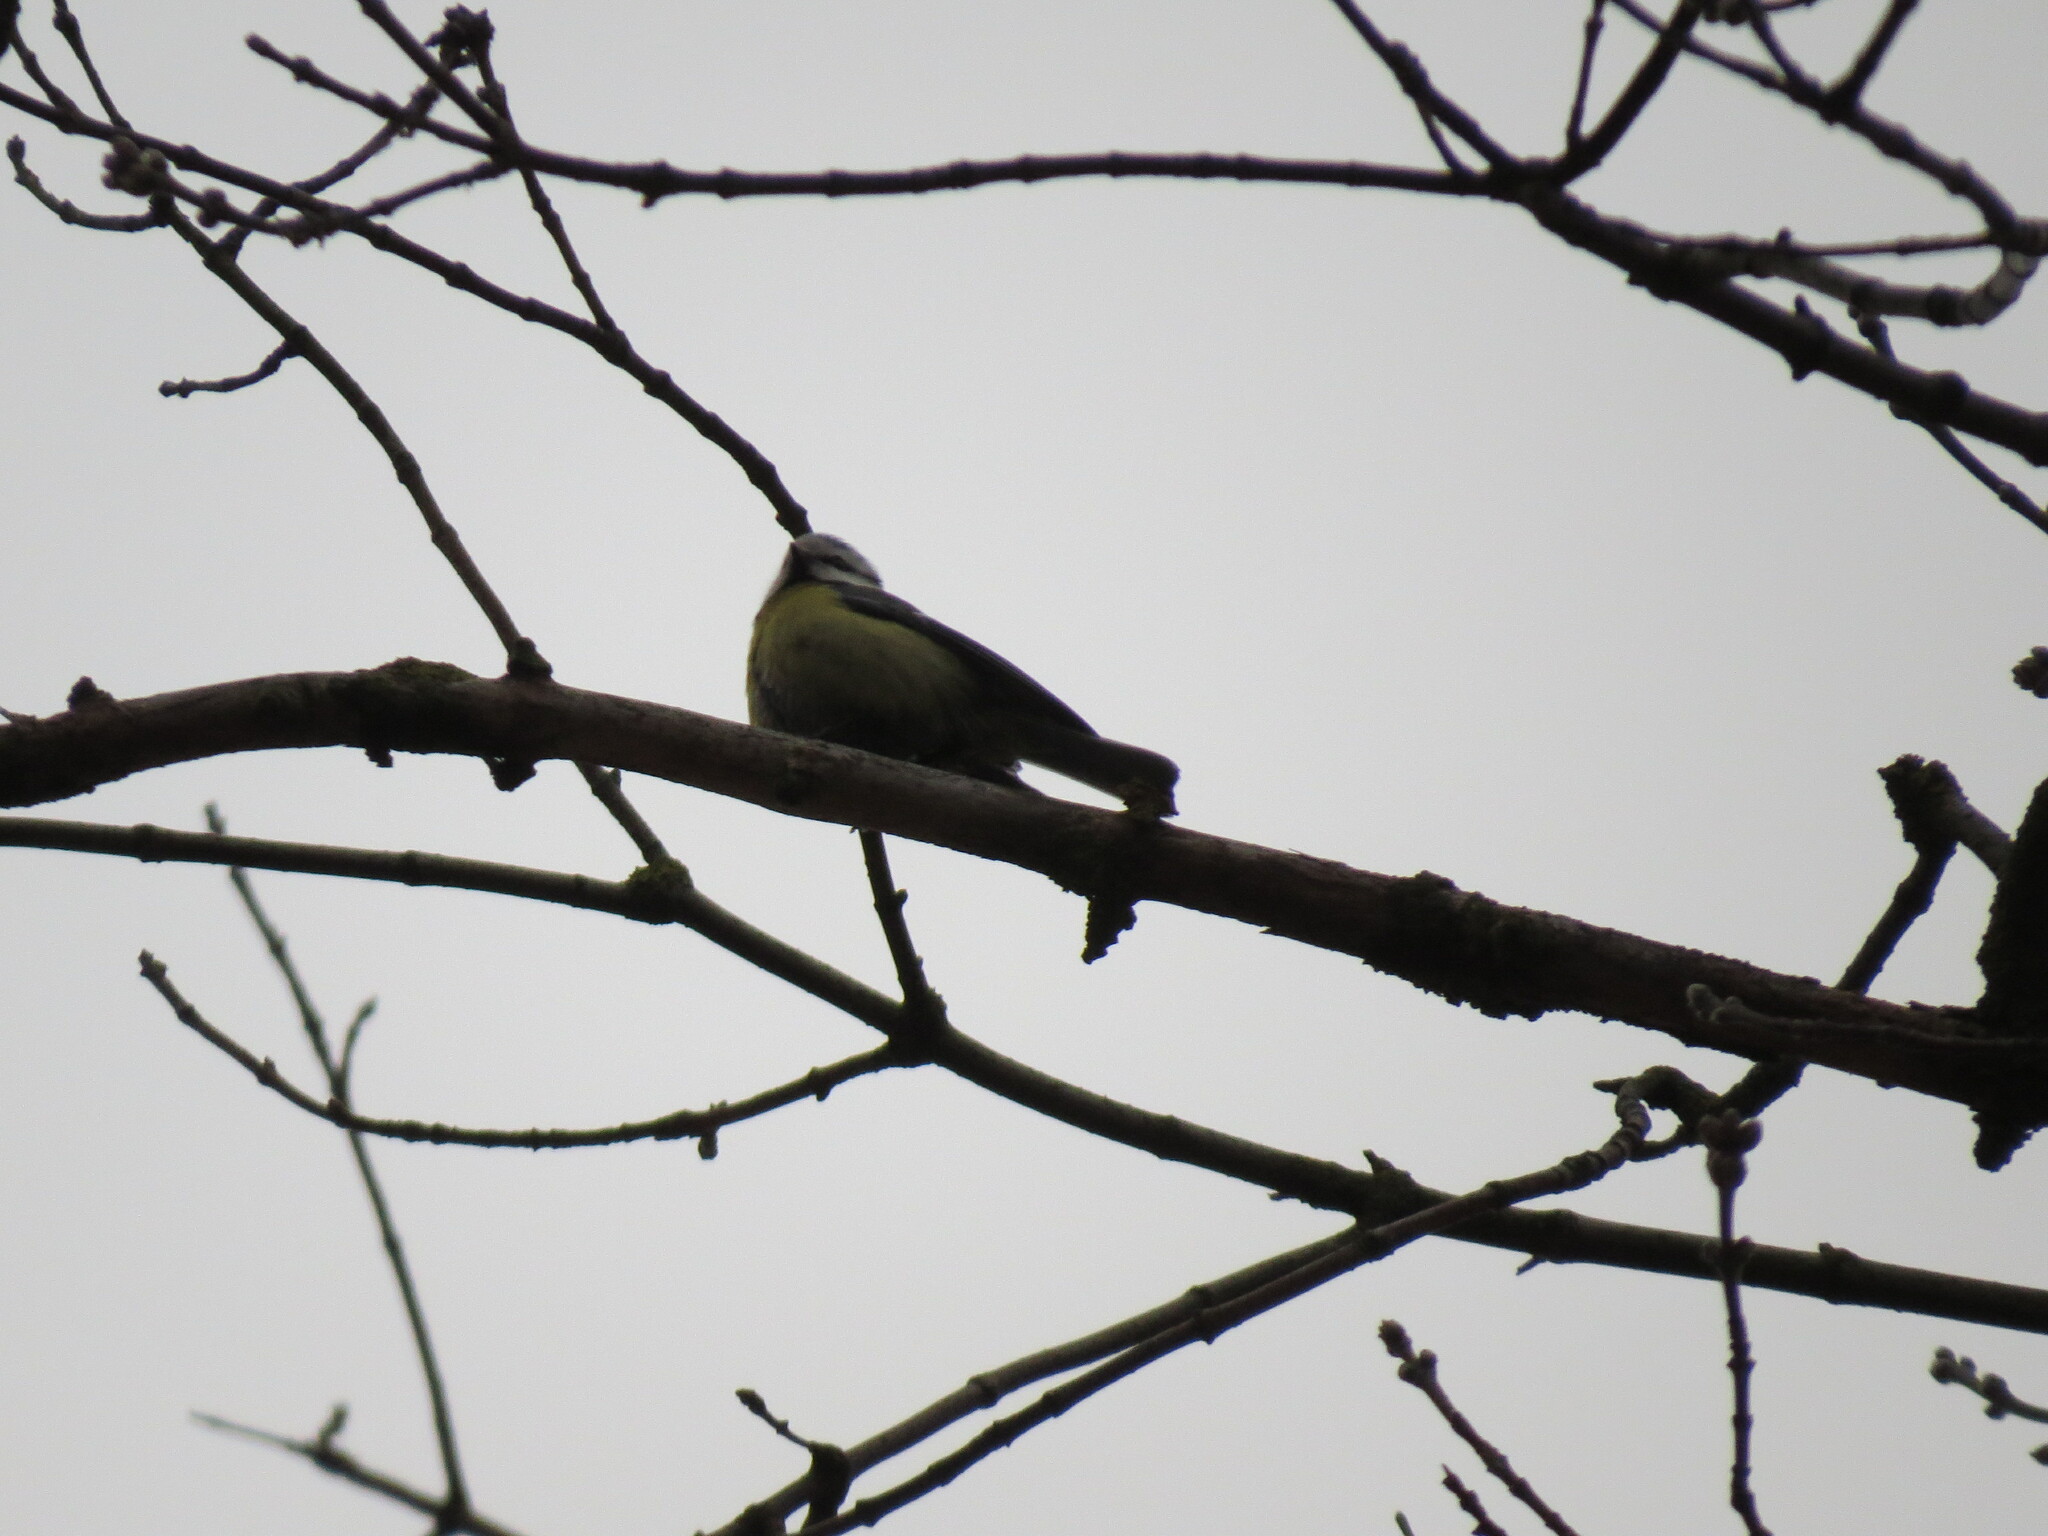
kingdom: Animalia
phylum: Chordata
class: Aves
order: Passeriformes
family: Paridae
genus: Cyanistes
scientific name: Cyanistes caeruleus
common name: Eurasian blue tit
